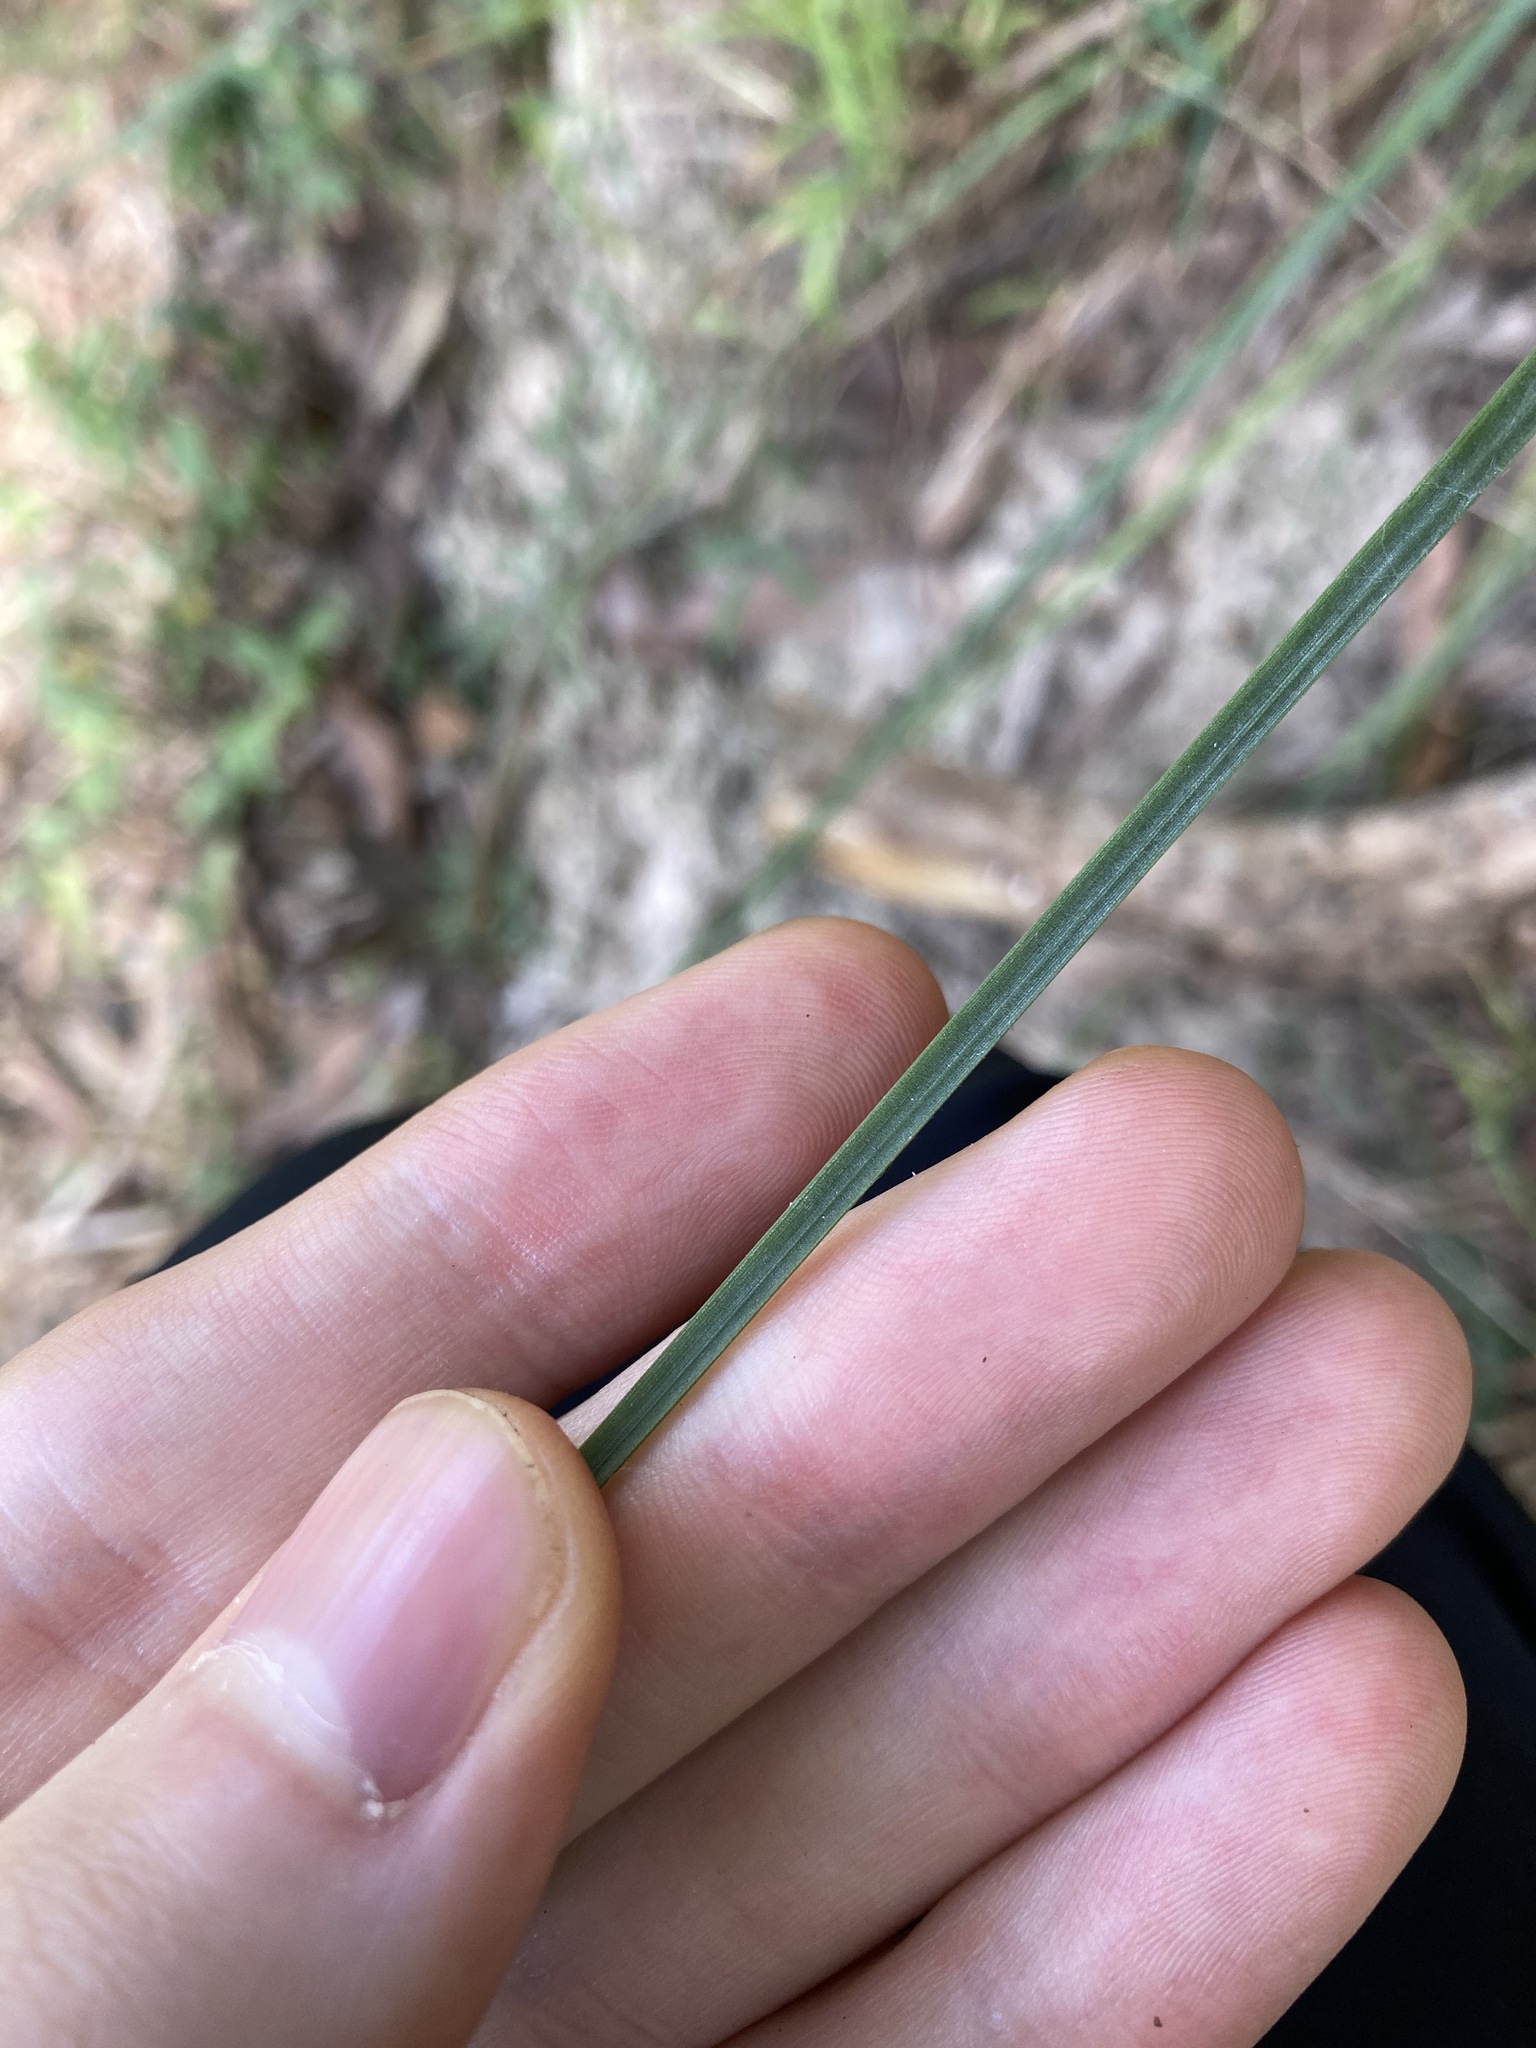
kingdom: Plantae
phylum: Tracheophyta
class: Liliopsida
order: Asparagales
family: Asphodelaceae
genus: Xanthorrhoea
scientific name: Xanthorrhoea minor
